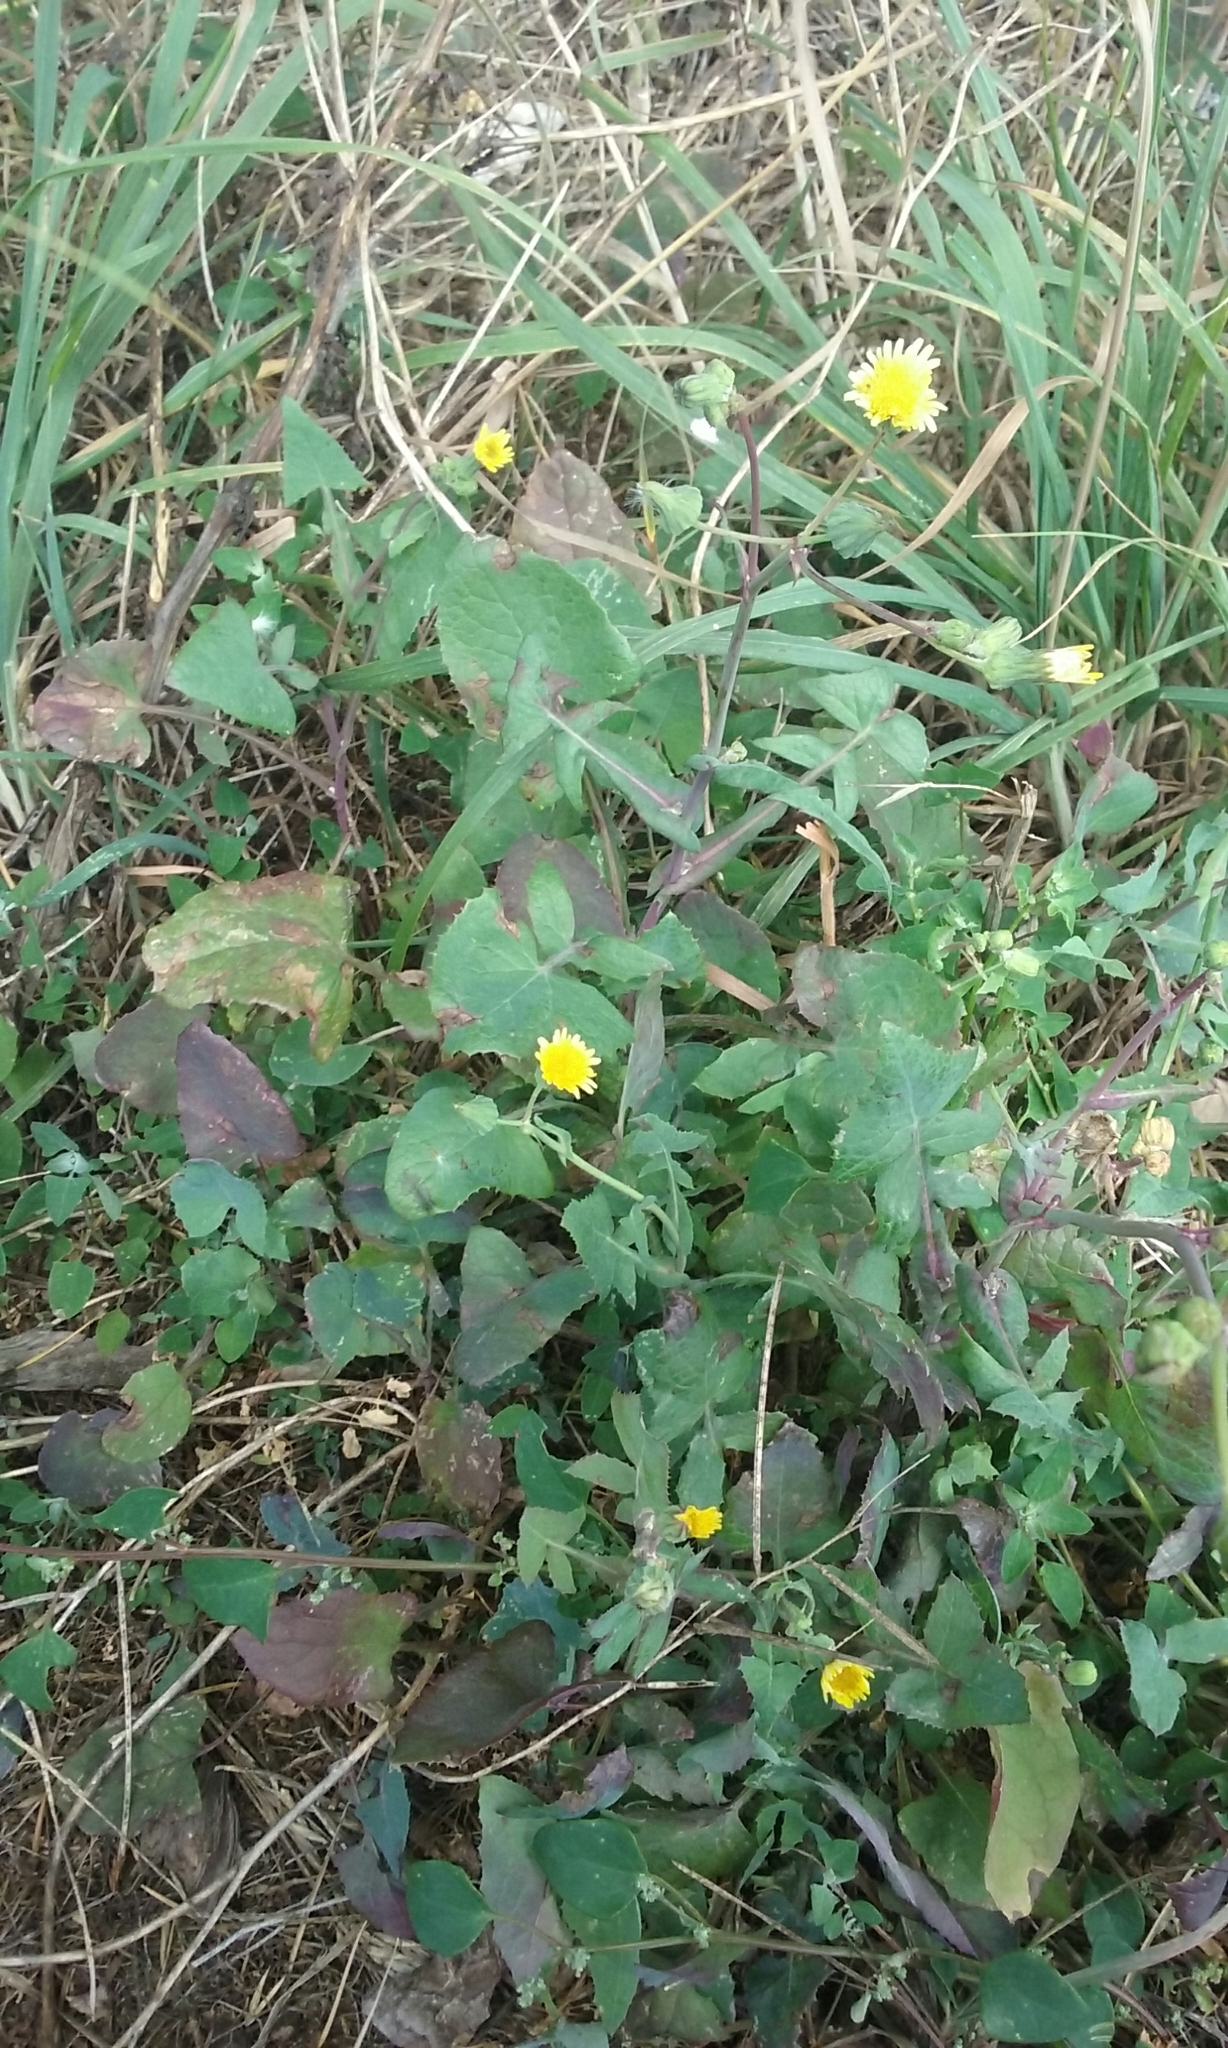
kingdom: Plantae
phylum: Tracheophyta
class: Magnoliopsida
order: Asterales
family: Asteraceae
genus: Sonchus
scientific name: Sonchus oleraceus
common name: Common sowthistle
